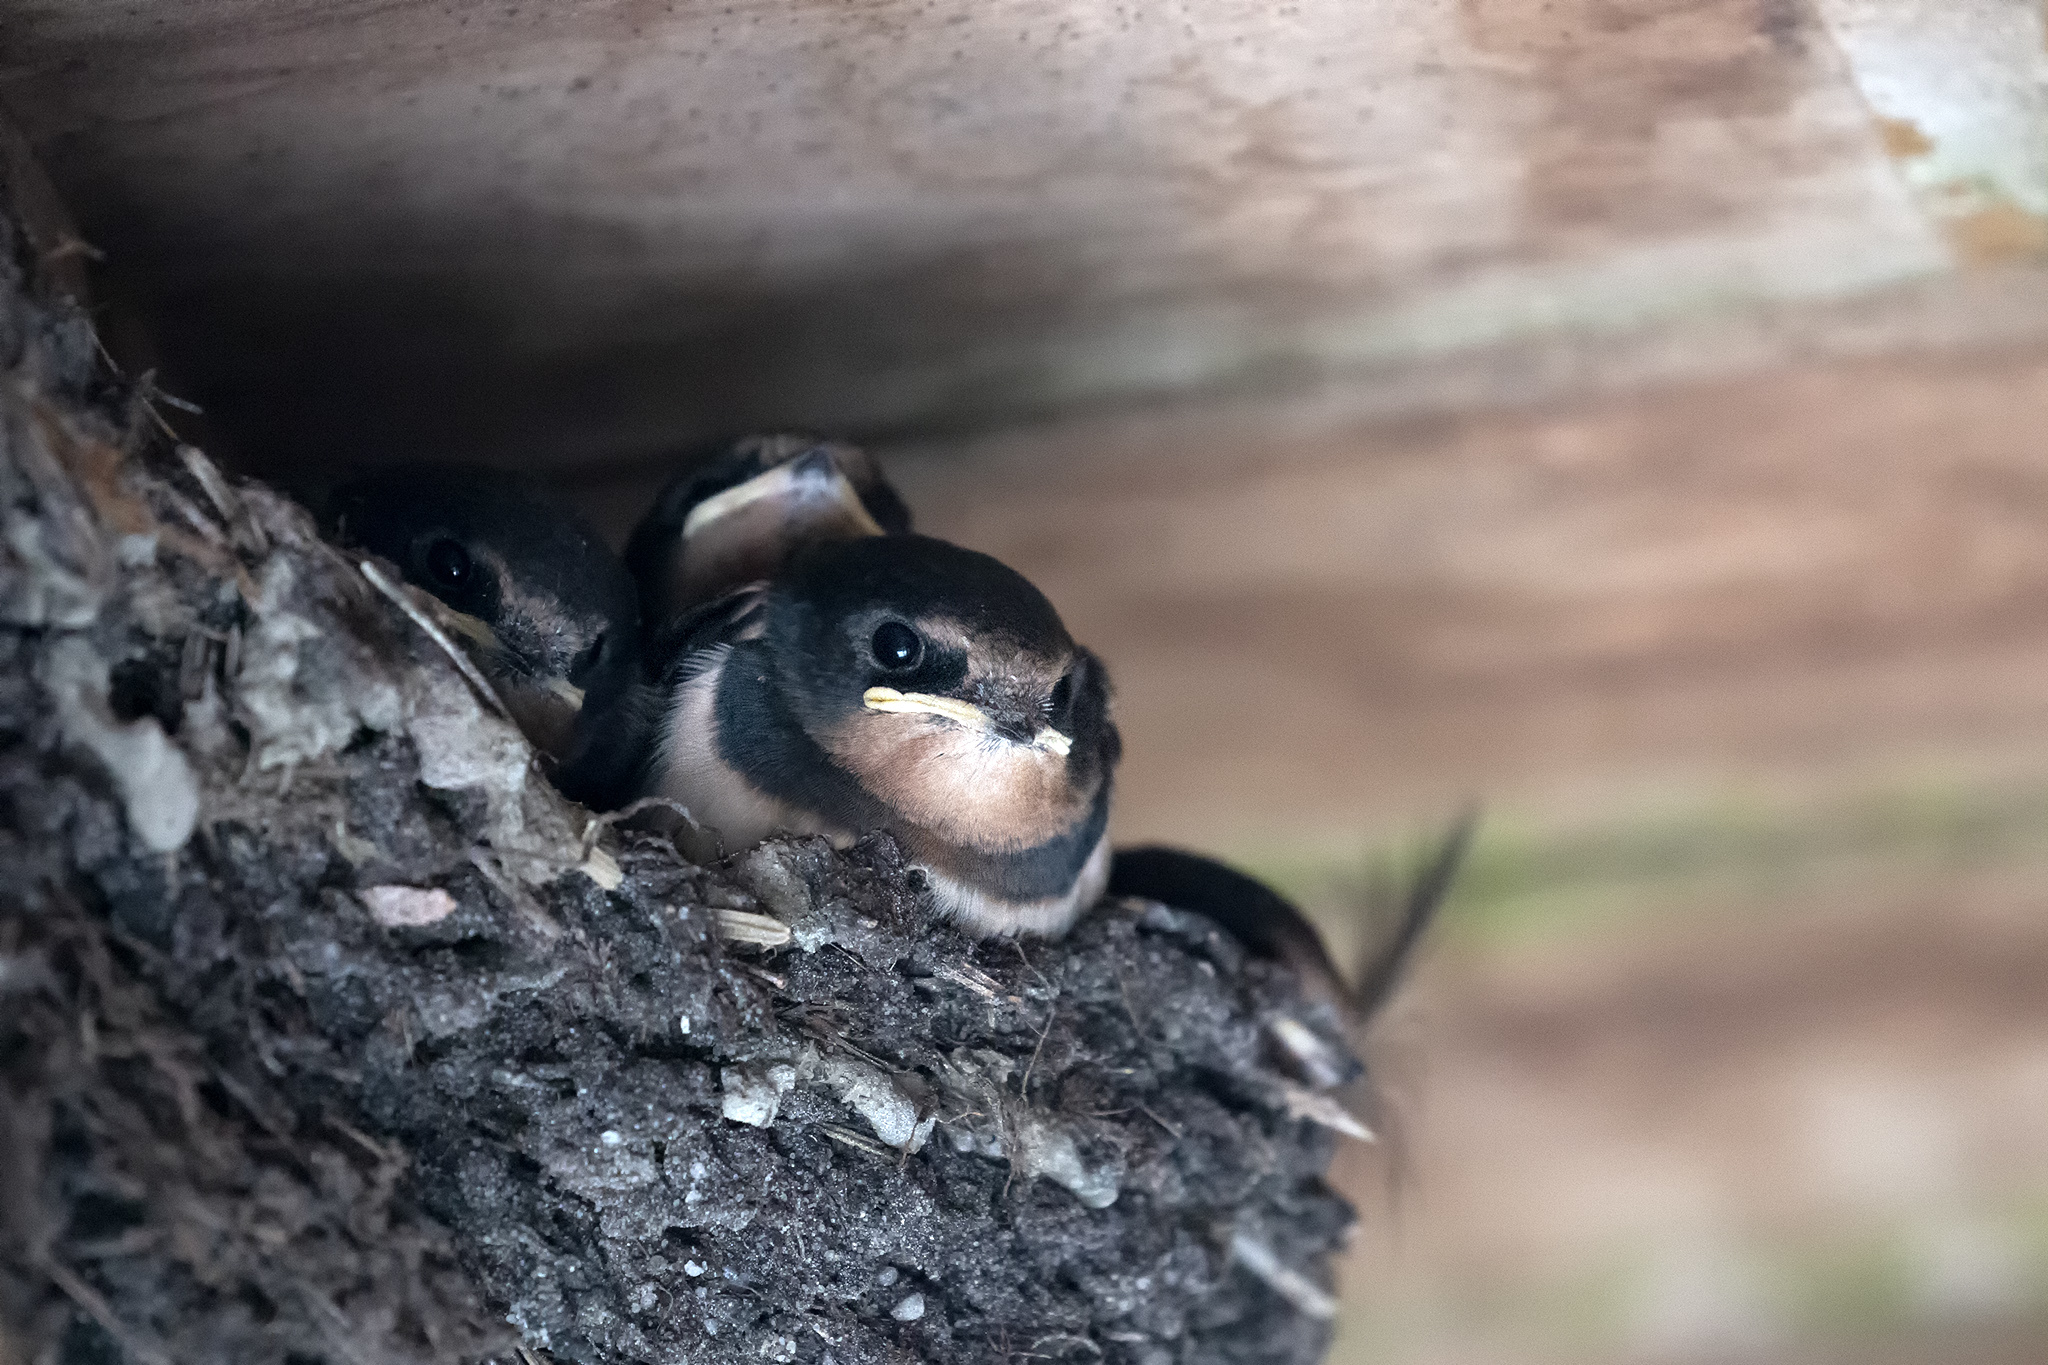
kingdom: Animalia
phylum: Chordata
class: Aves
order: Passeriformes
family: Hirundinidae
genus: Hirundo
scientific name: Hirundo rustica
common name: Barn swallow
